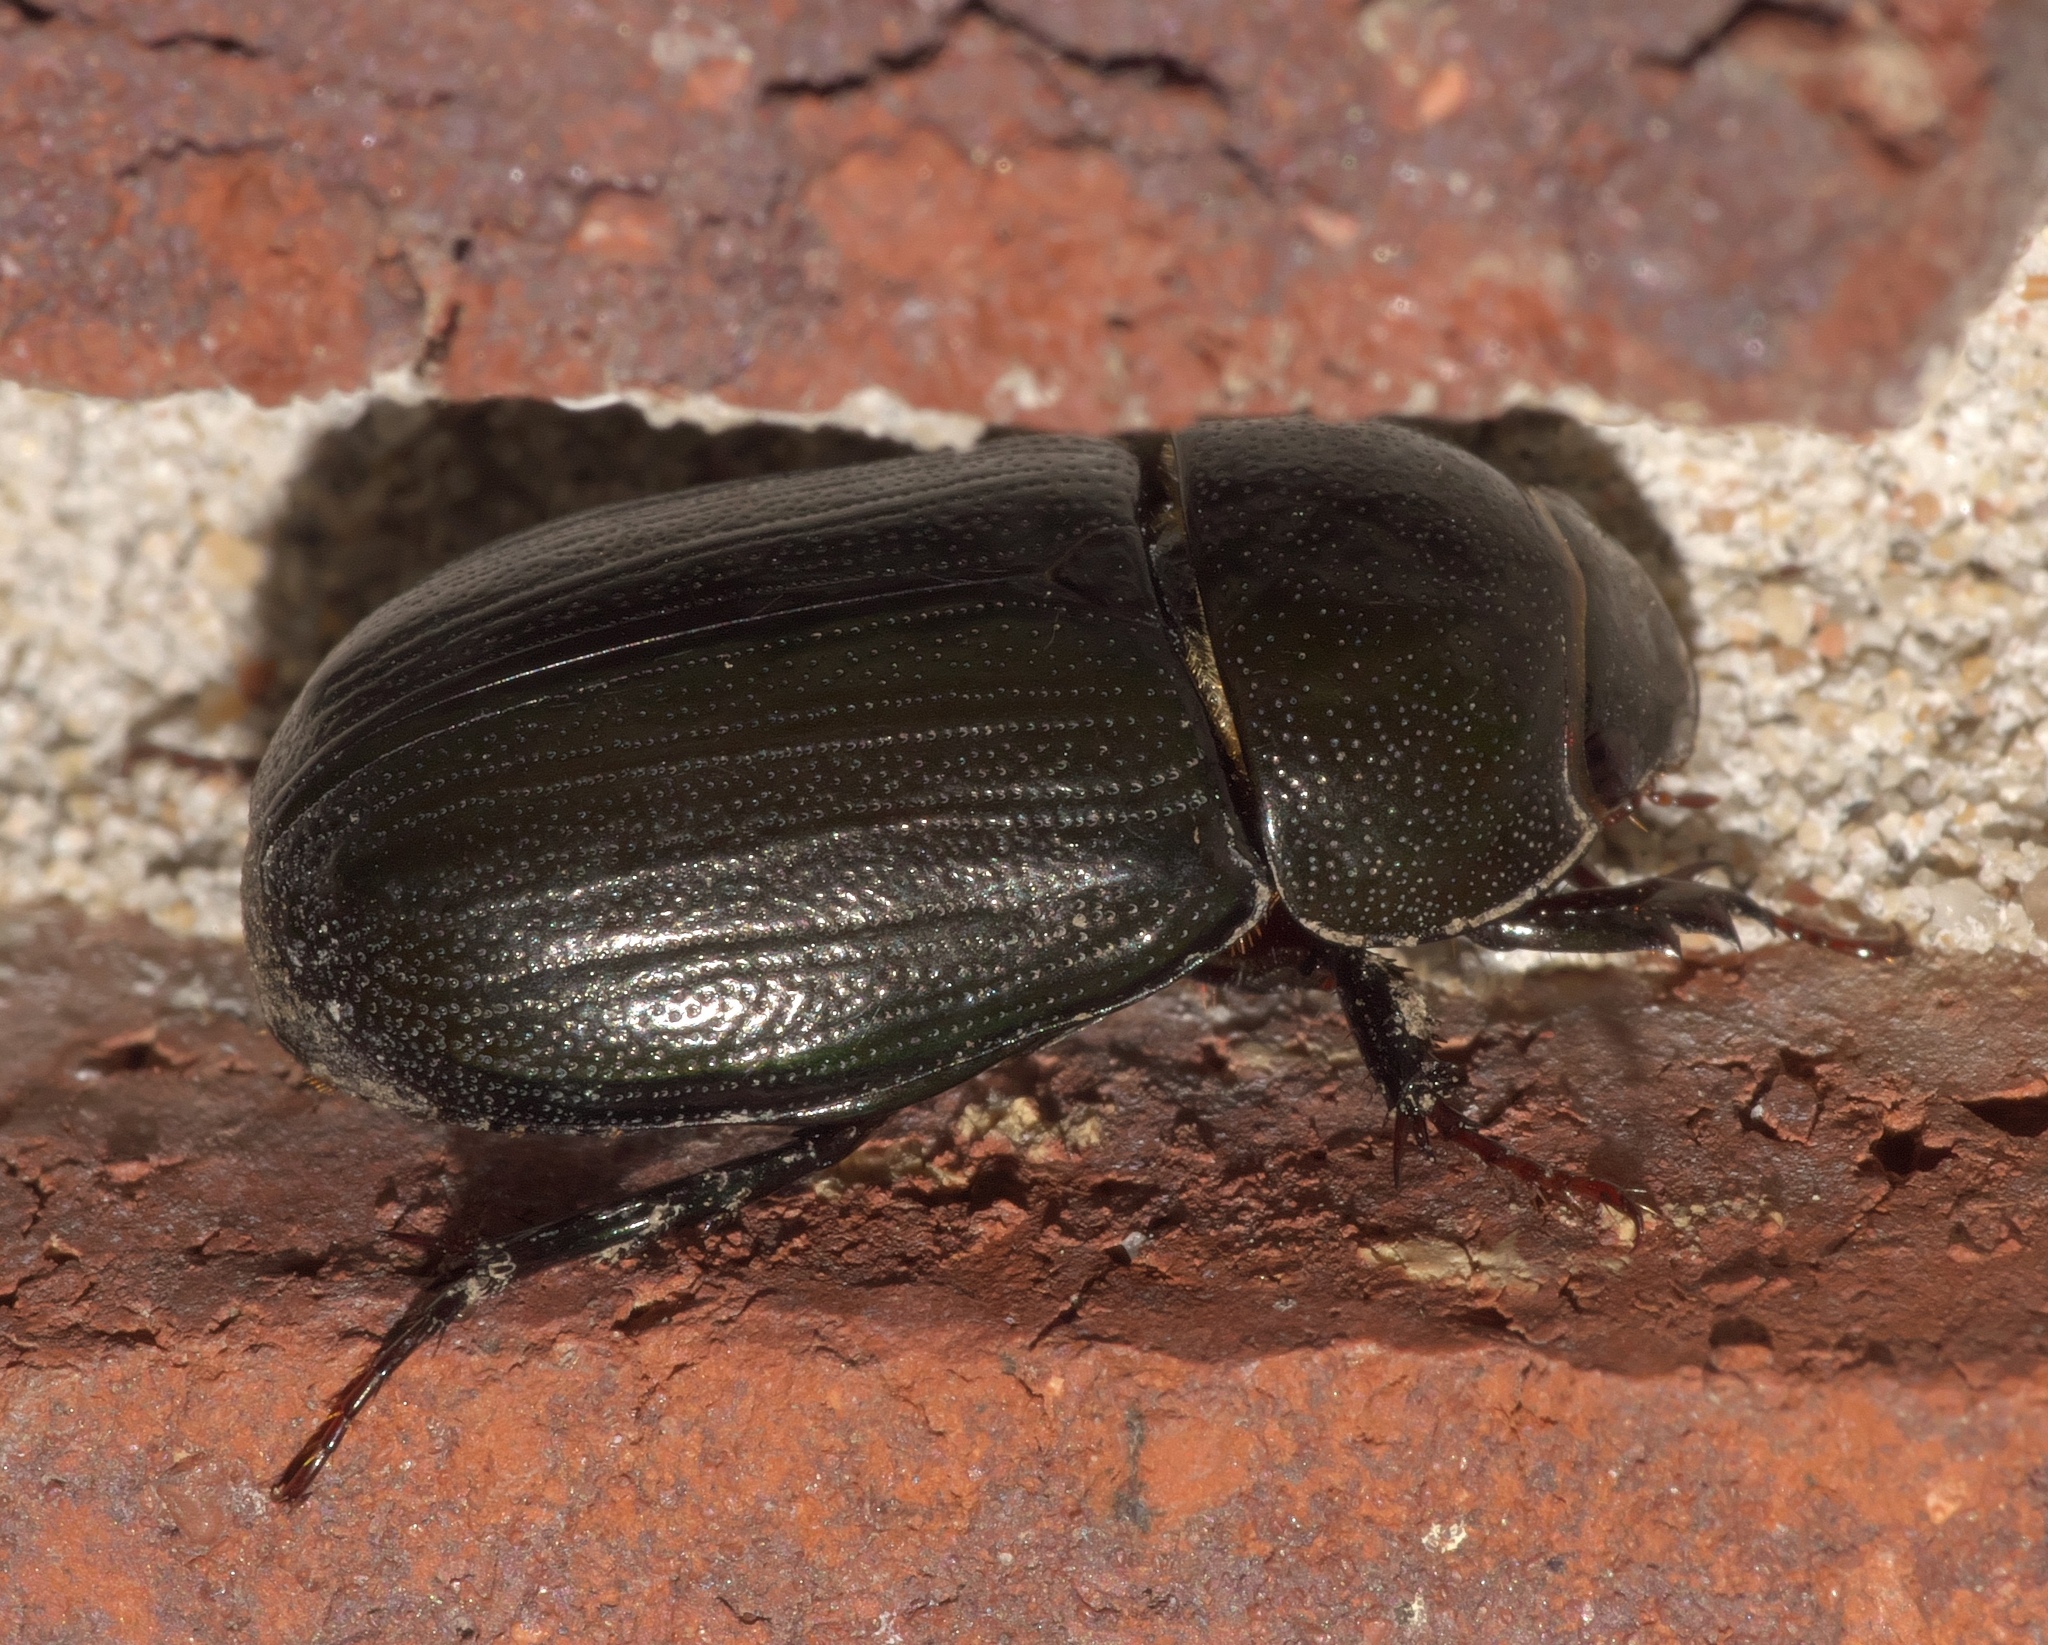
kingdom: Animalia
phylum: Arthropoda
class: Insecta
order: Coleoptera
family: Scarabaeidae
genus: Dyscinetus
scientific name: Dyscinetus morator
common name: Rice beetle
